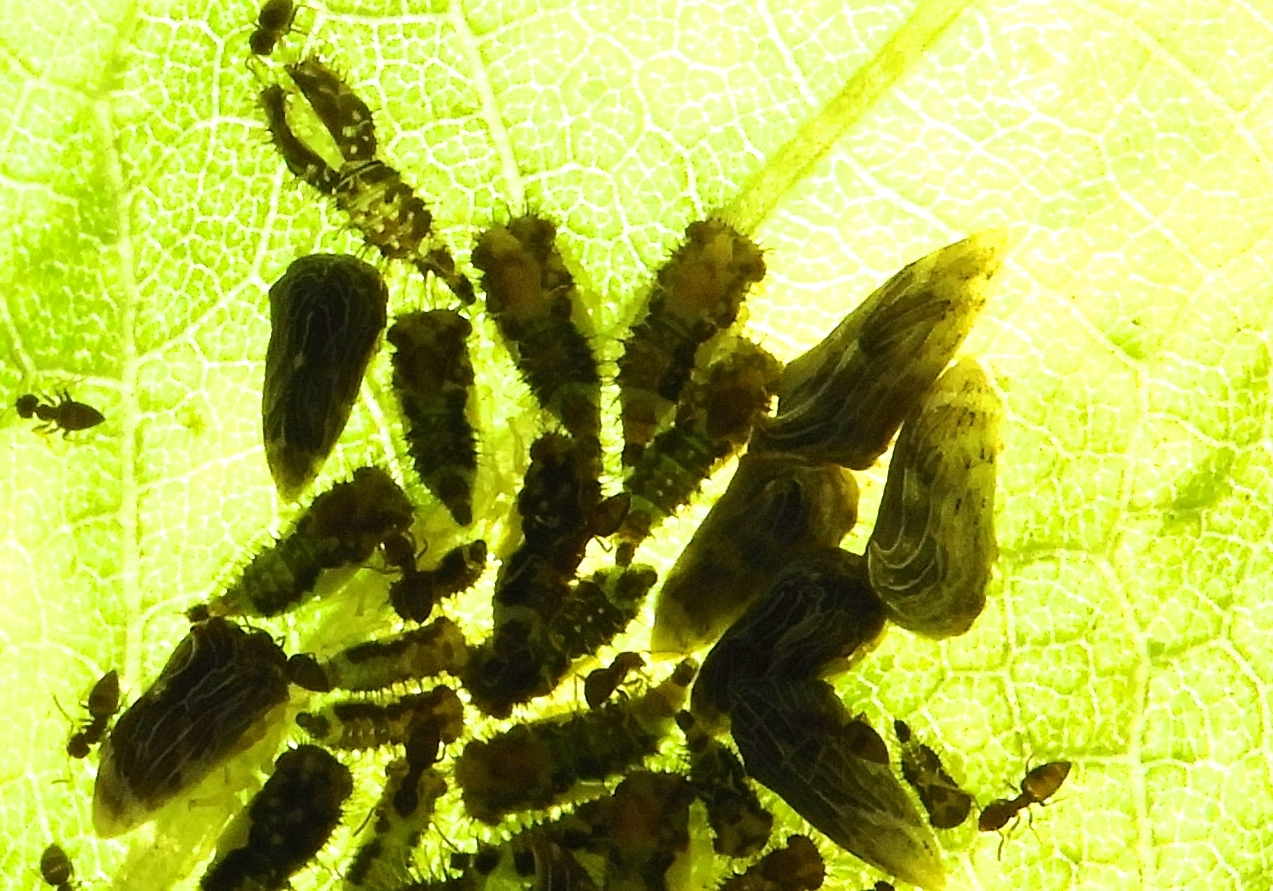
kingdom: Animalia
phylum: Arthropoda
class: Insecta
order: Hemiptera
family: Membracidae
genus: Publilia
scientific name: Publilia erecta
